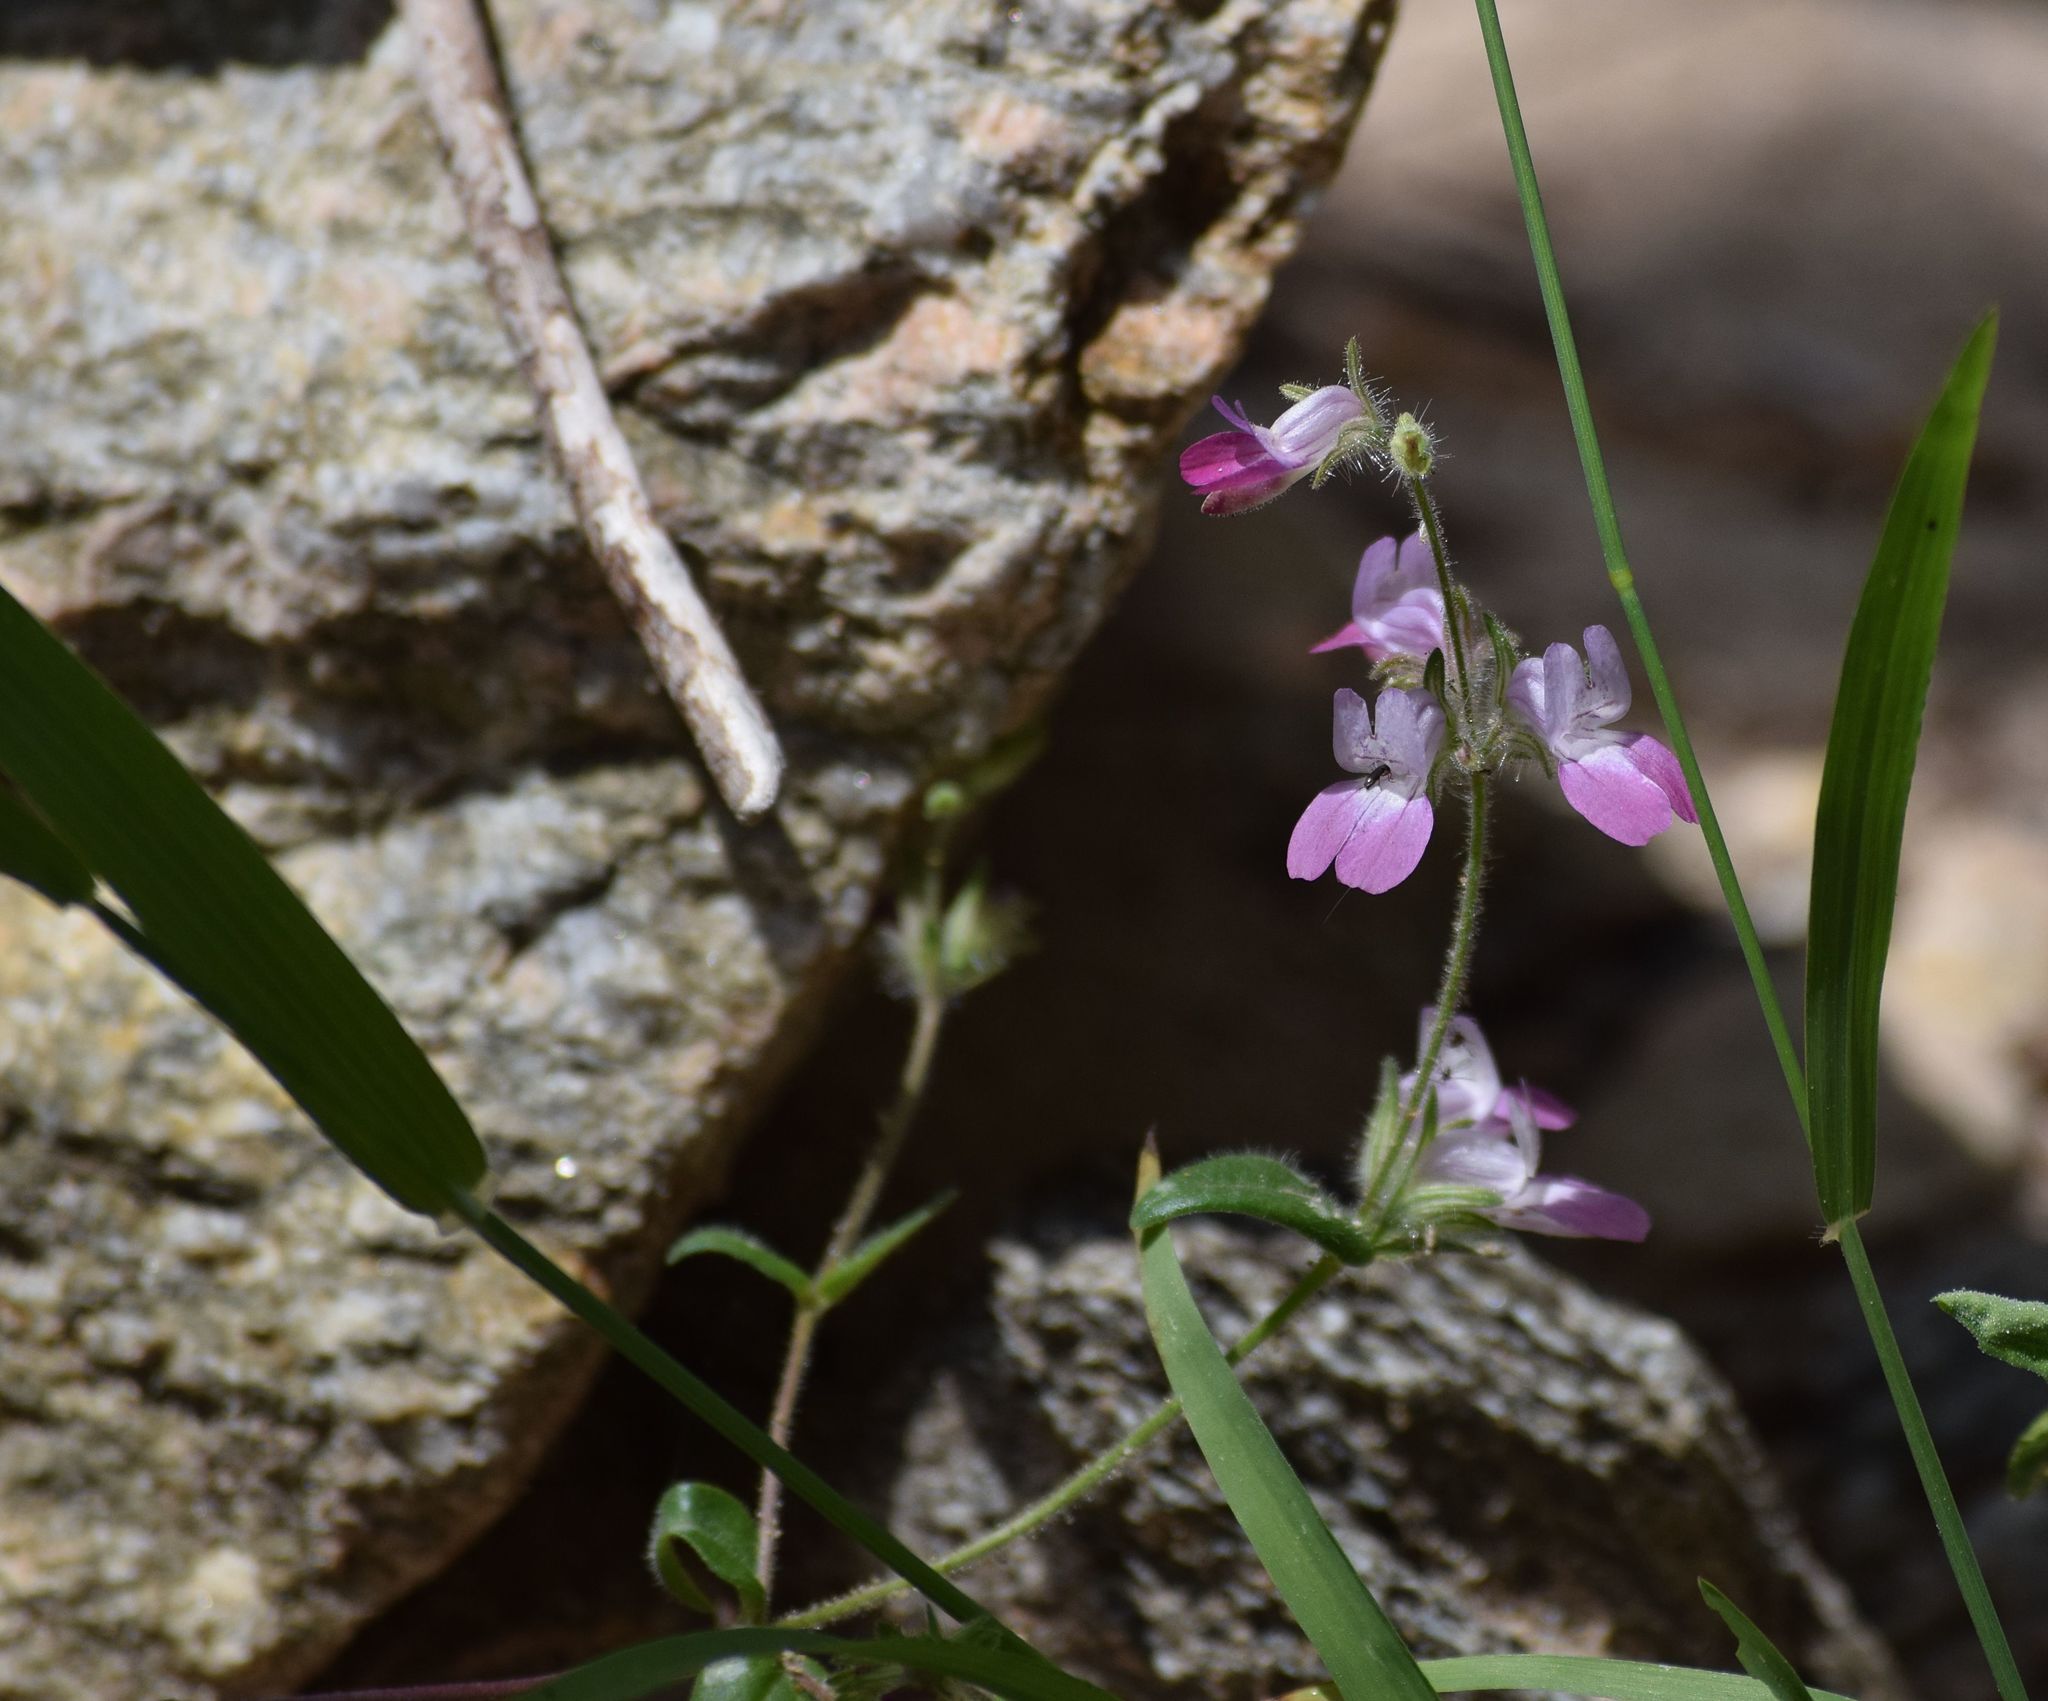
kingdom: Plantae
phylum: Tracheophyta
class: Magnoliopsida
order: Lamiales
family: Plantaginaceae
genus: Collinsia
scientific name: Collinsia heterophylla
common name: Chinese-houses
